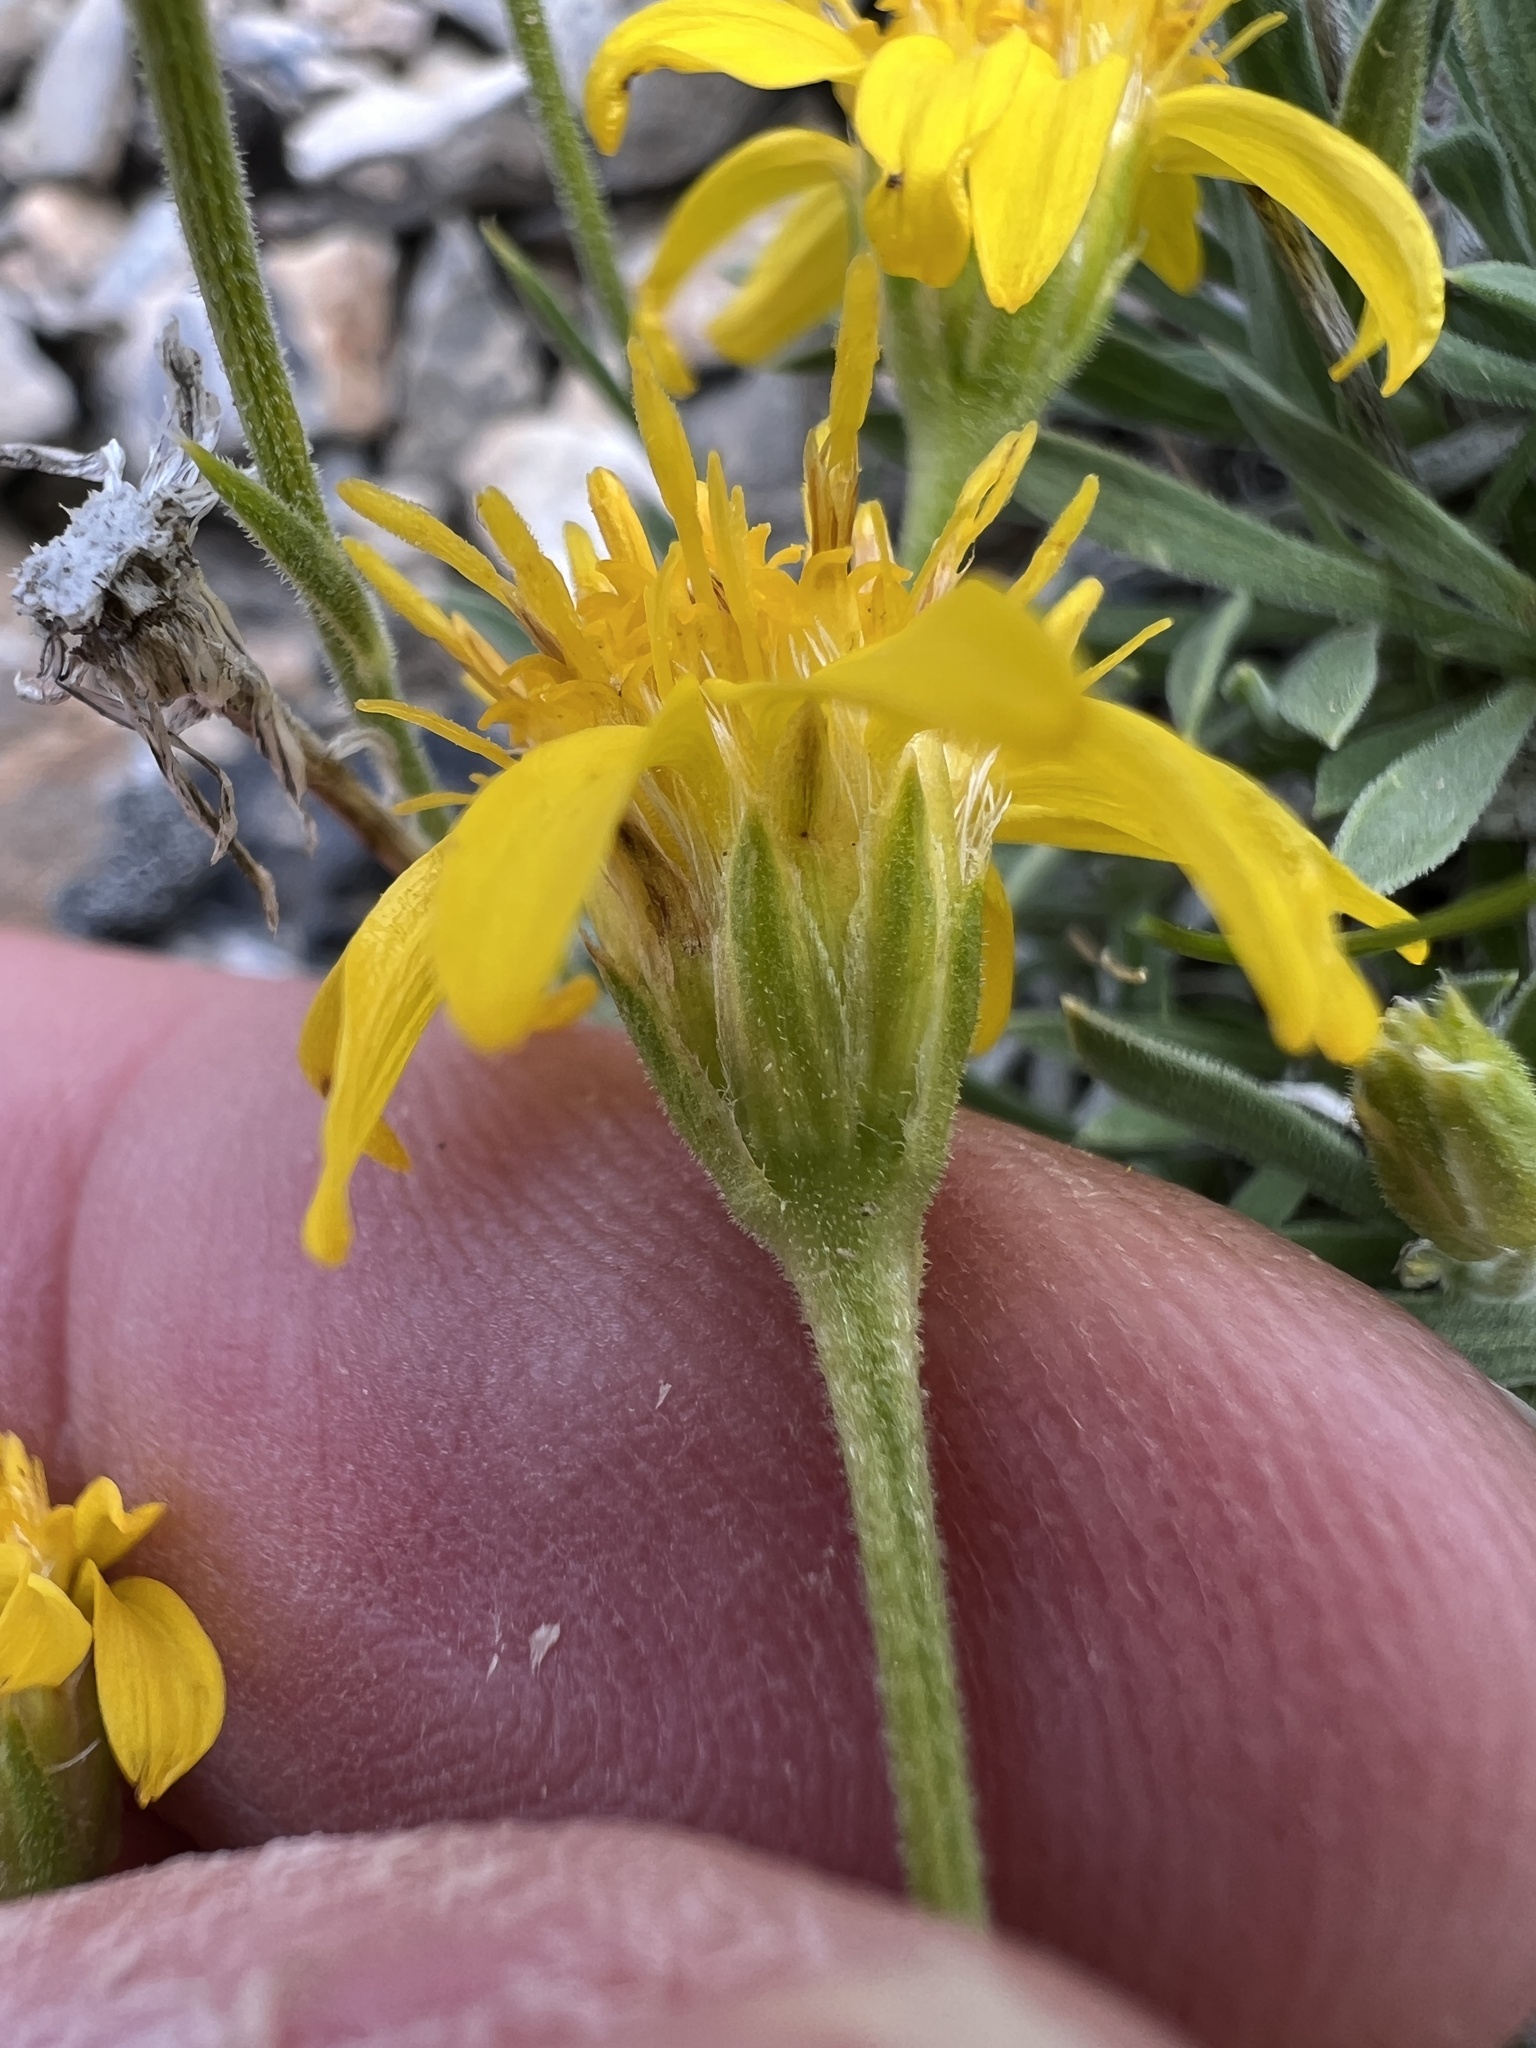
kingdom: Plantae
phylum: Tracheophyta
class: Magnoliopsida
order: Asterales
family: Asteraceae
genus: Stenotus
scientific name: Stenotus acaulis
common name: Stemless goldenweed
